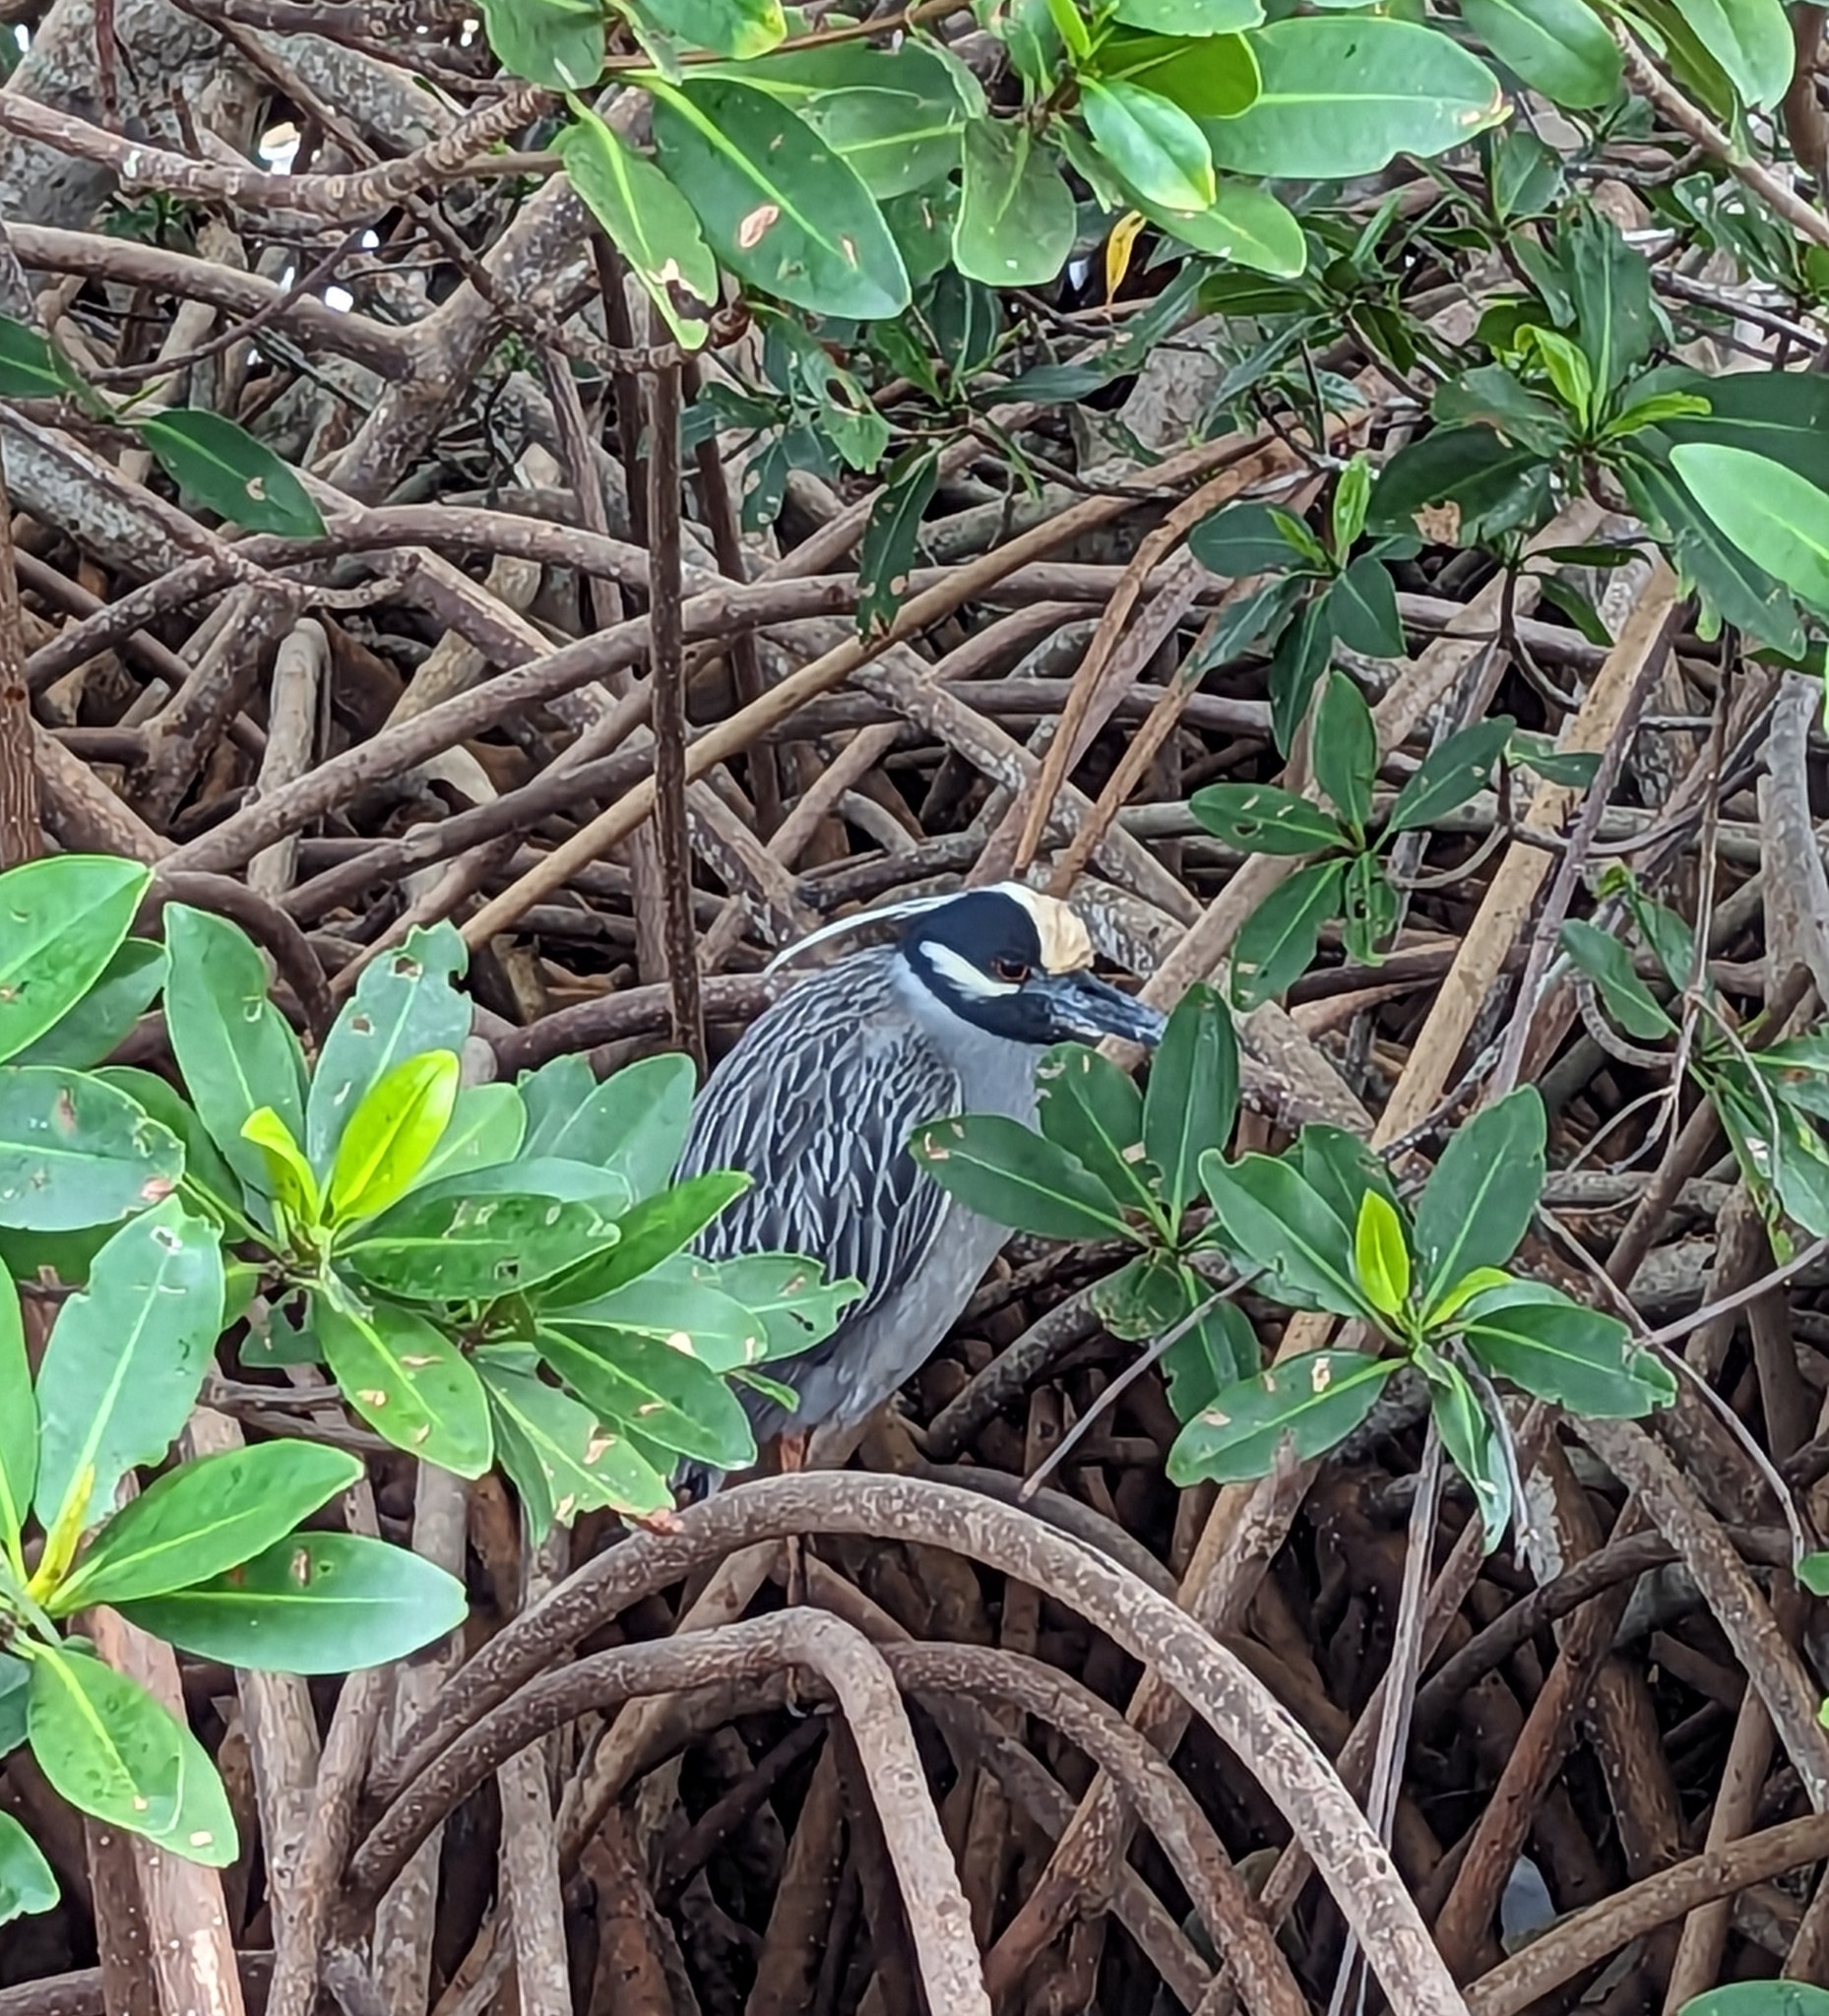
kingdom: Animalia
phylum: Chordata
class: Aves
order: Pelecaniformes
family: Ardeidae
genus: Nyctanassa
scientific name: Nyctanassa violacea
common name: Yellow-crowned night heron
